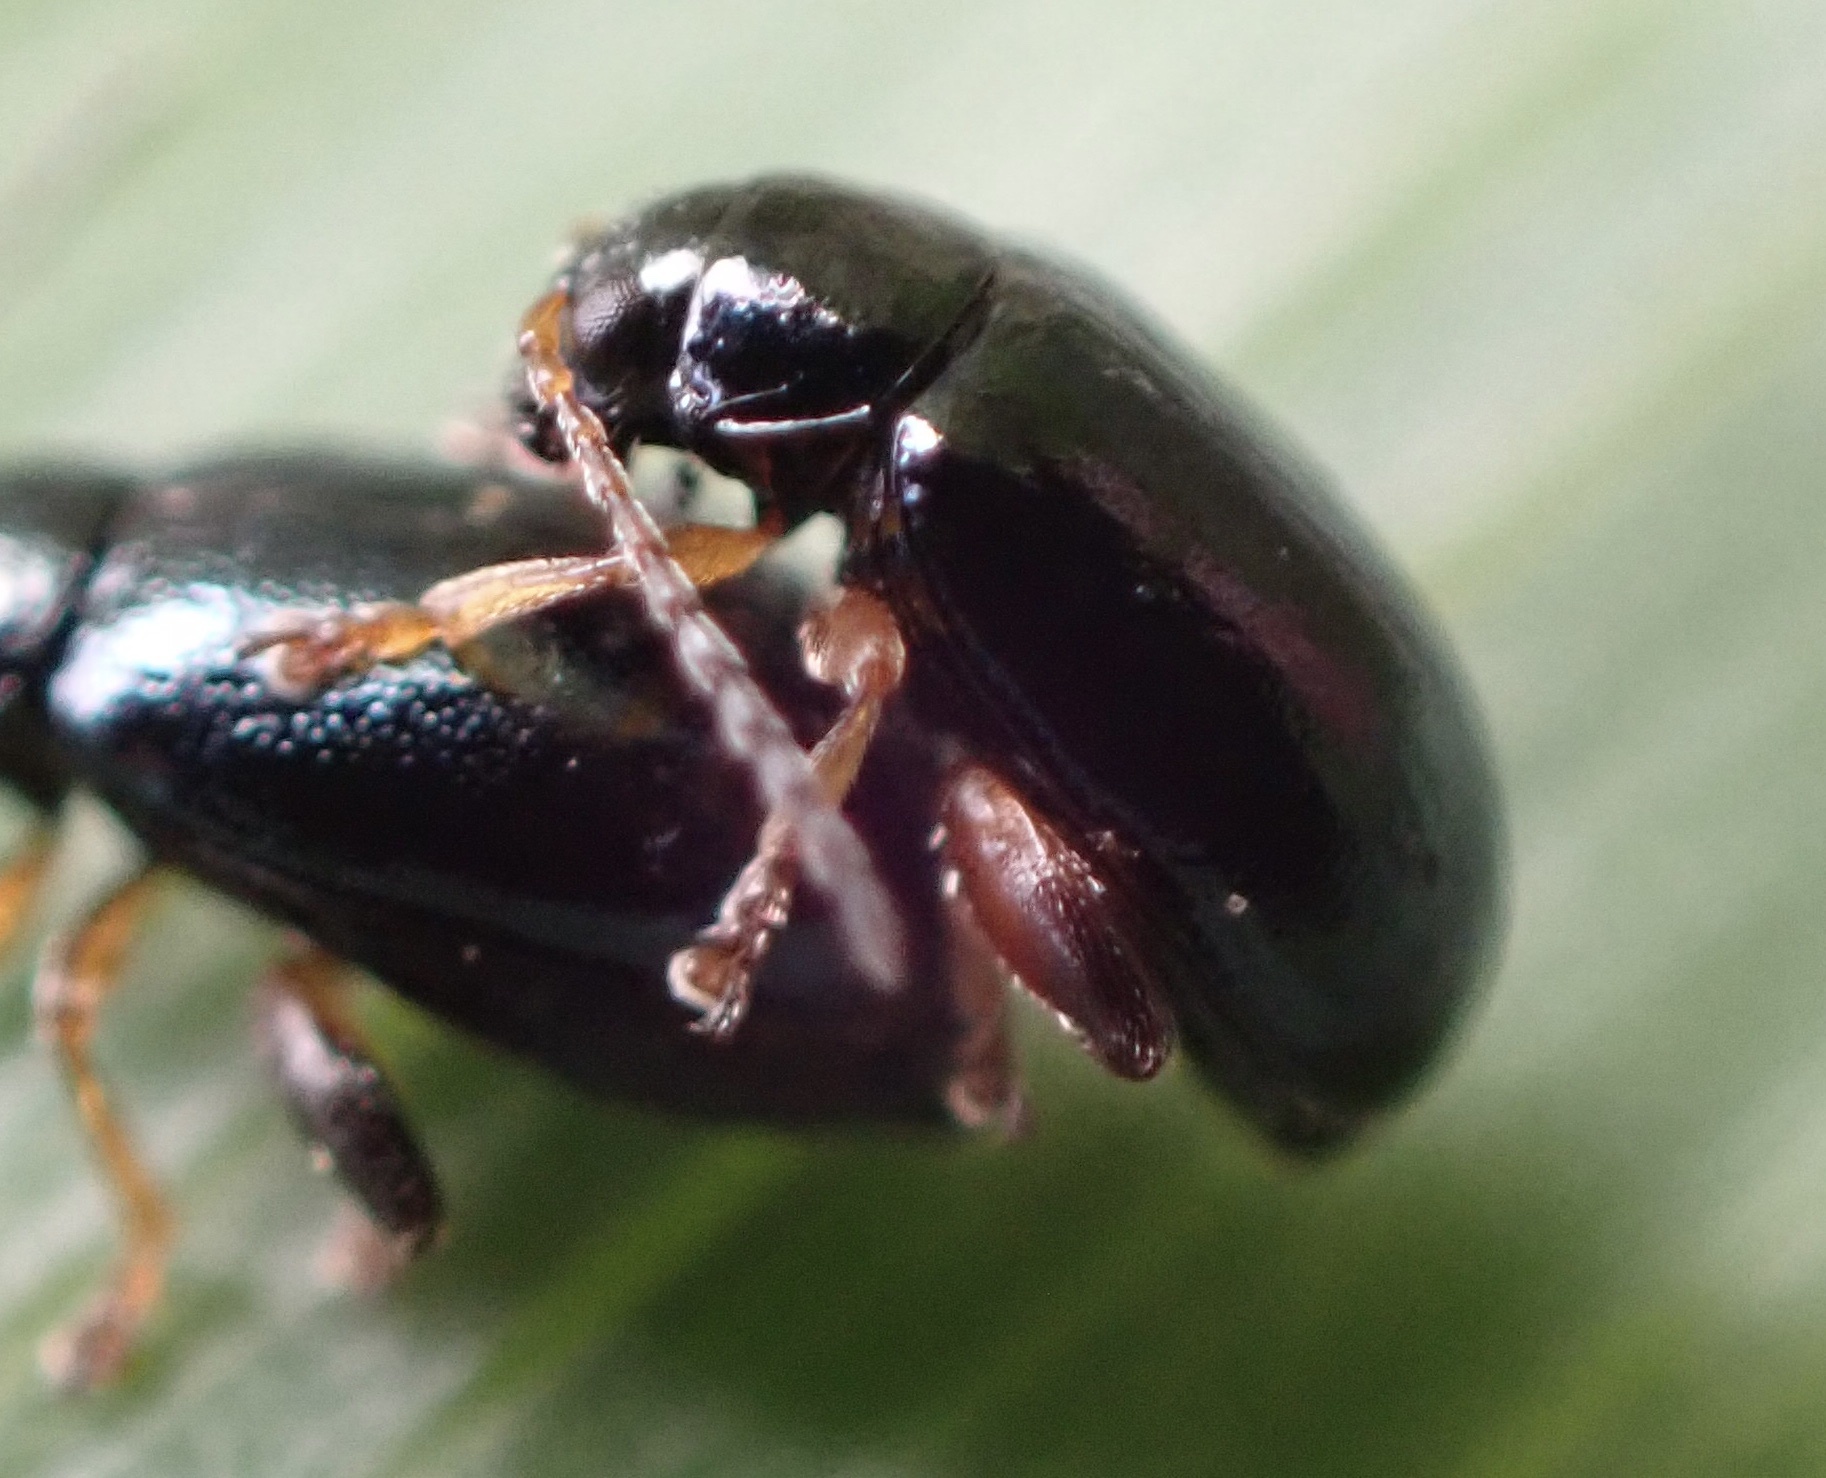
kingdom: Animalia
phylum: Arthropoda
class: Insecta
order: Coleoptera
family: Chrysomelidae
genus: Aphthona
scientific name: Aphthona nonstriata
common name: Iris flea beetle
